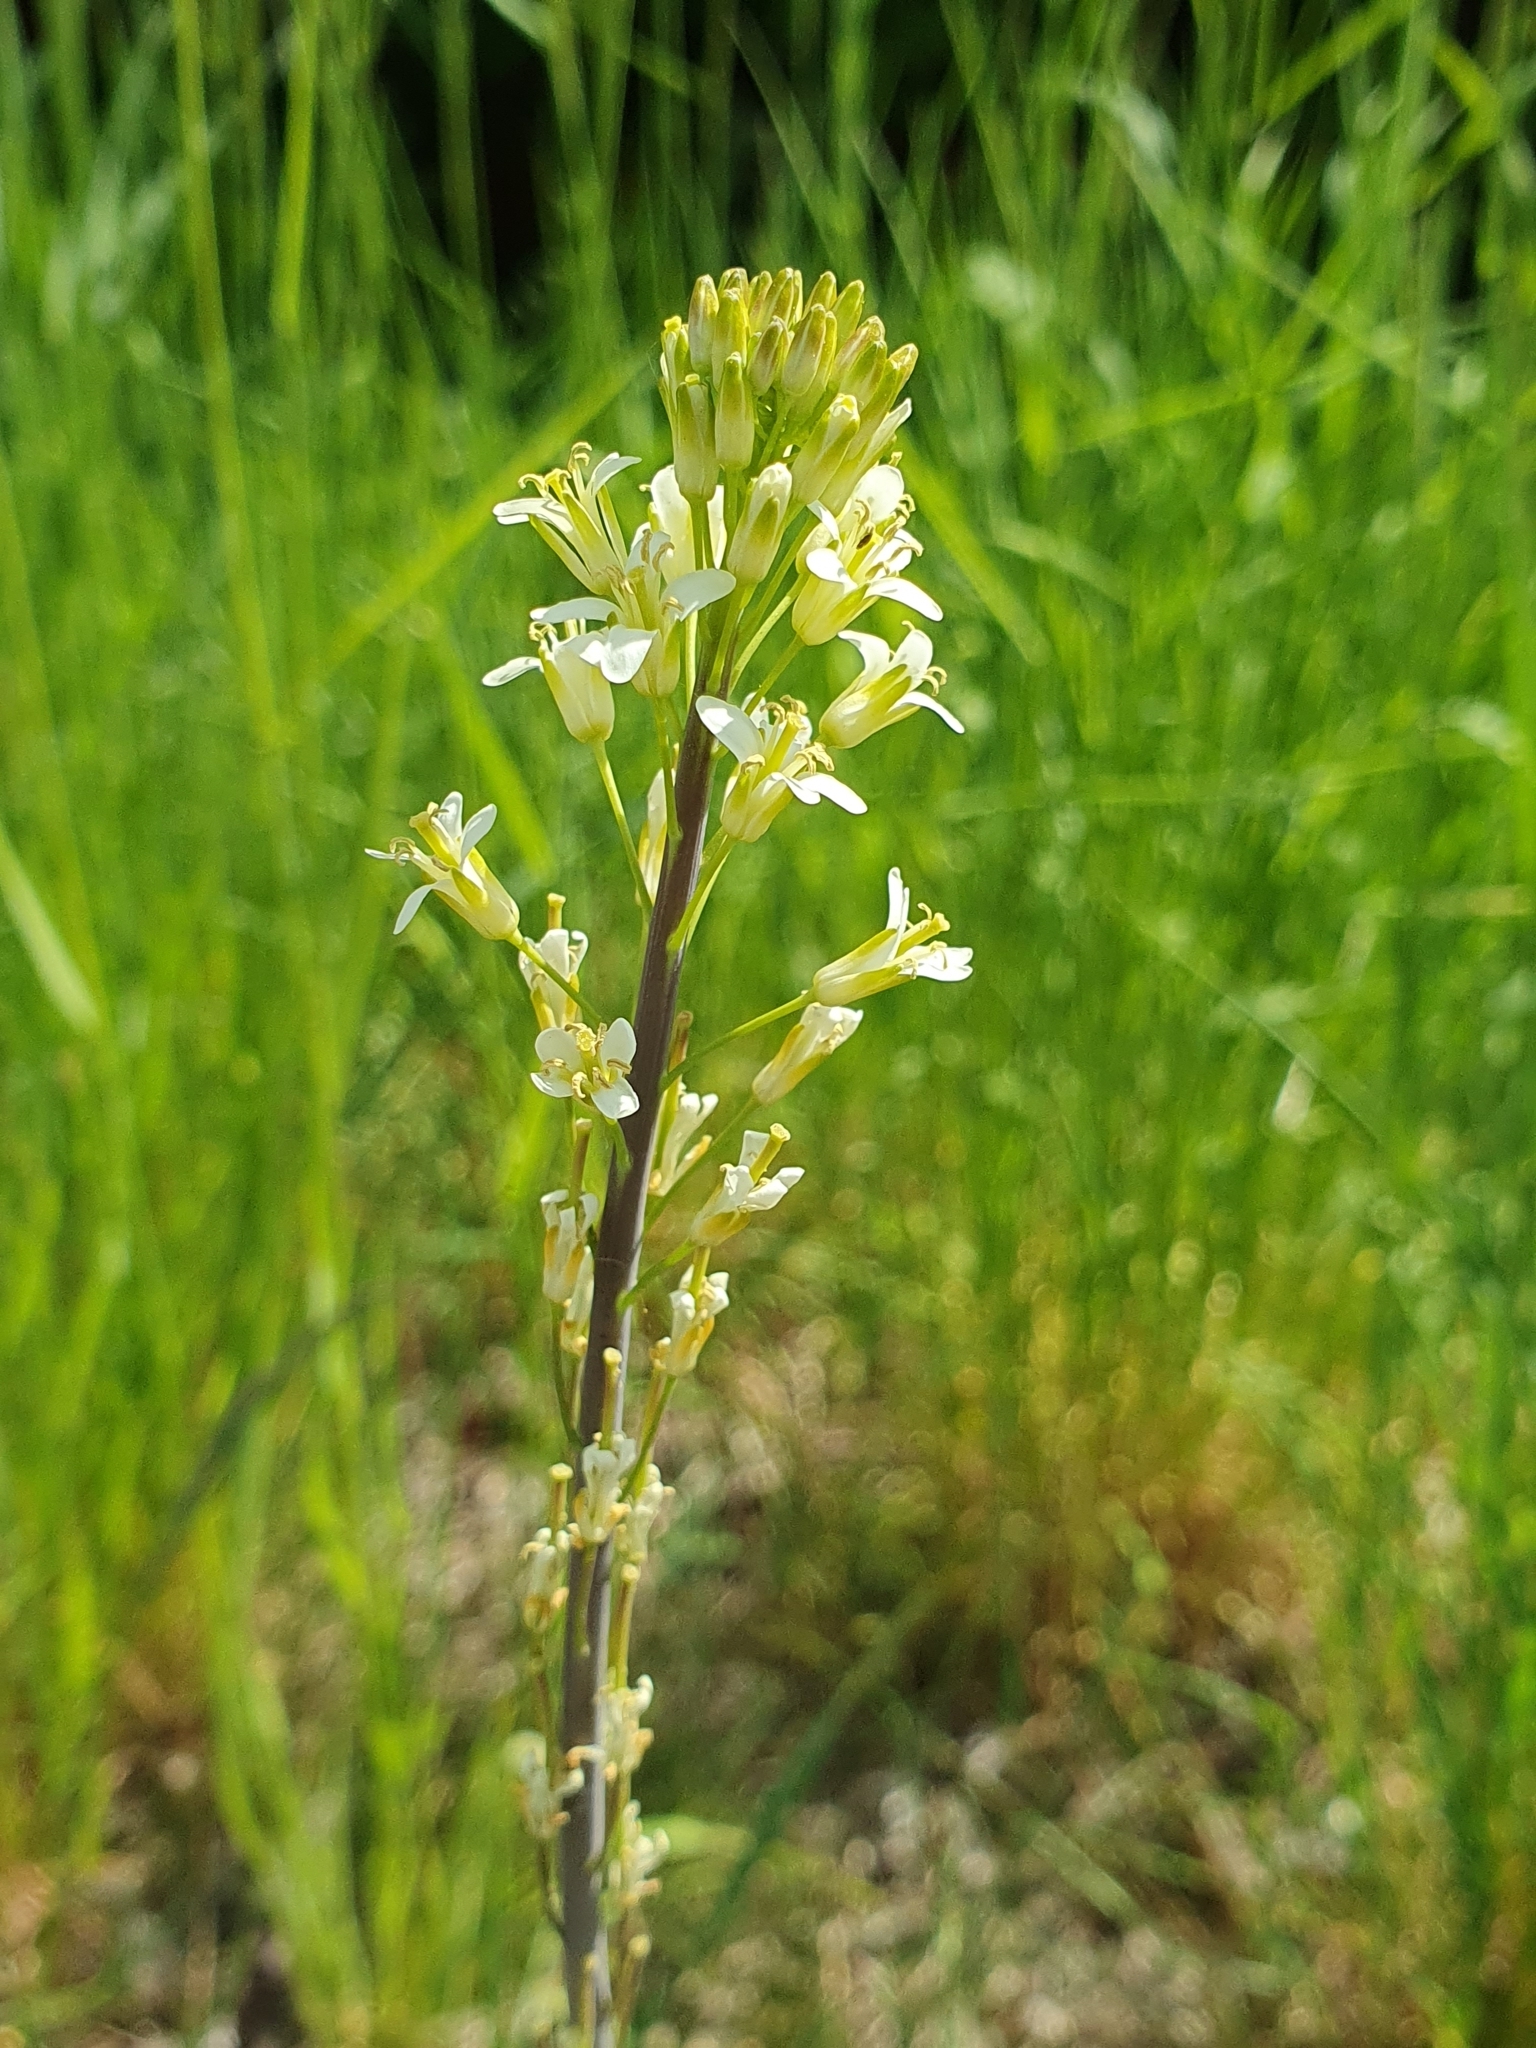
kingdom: Plantae
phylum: Tracheophyta
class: Magnoliopsida
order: Brassicales
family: Brassicaceae
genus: Turritis
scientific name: Turritis glabra
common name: Tower rockcress
